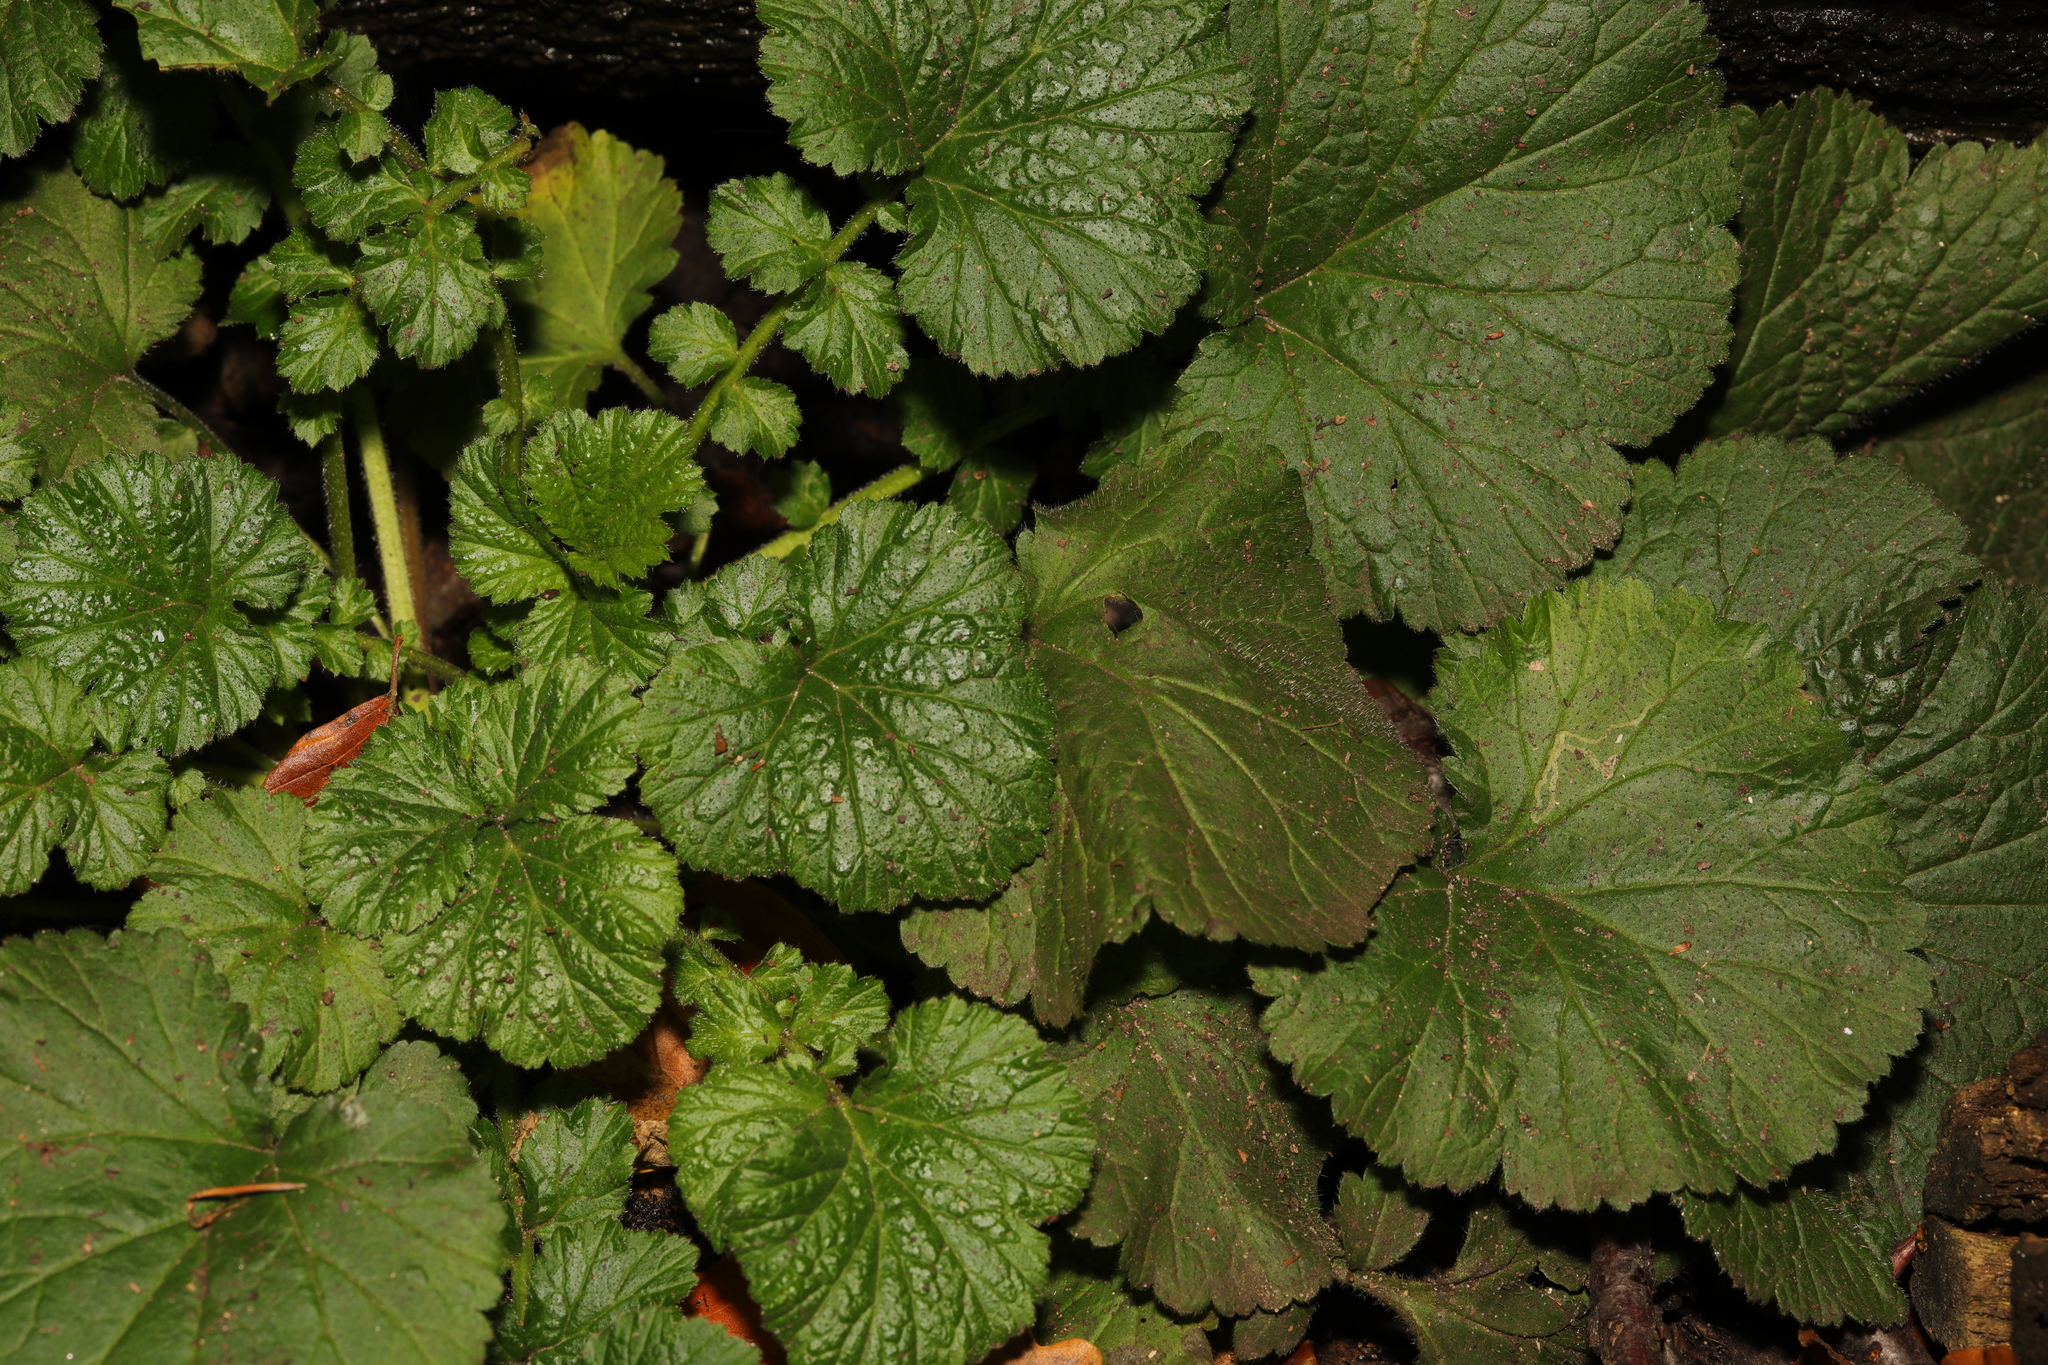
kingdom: Plantae
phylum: Tracheophyta
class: Magnoliopsida
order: Rosales
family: Rosaceae
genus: Geum
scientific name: Geum urbanum
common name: Wood avens
